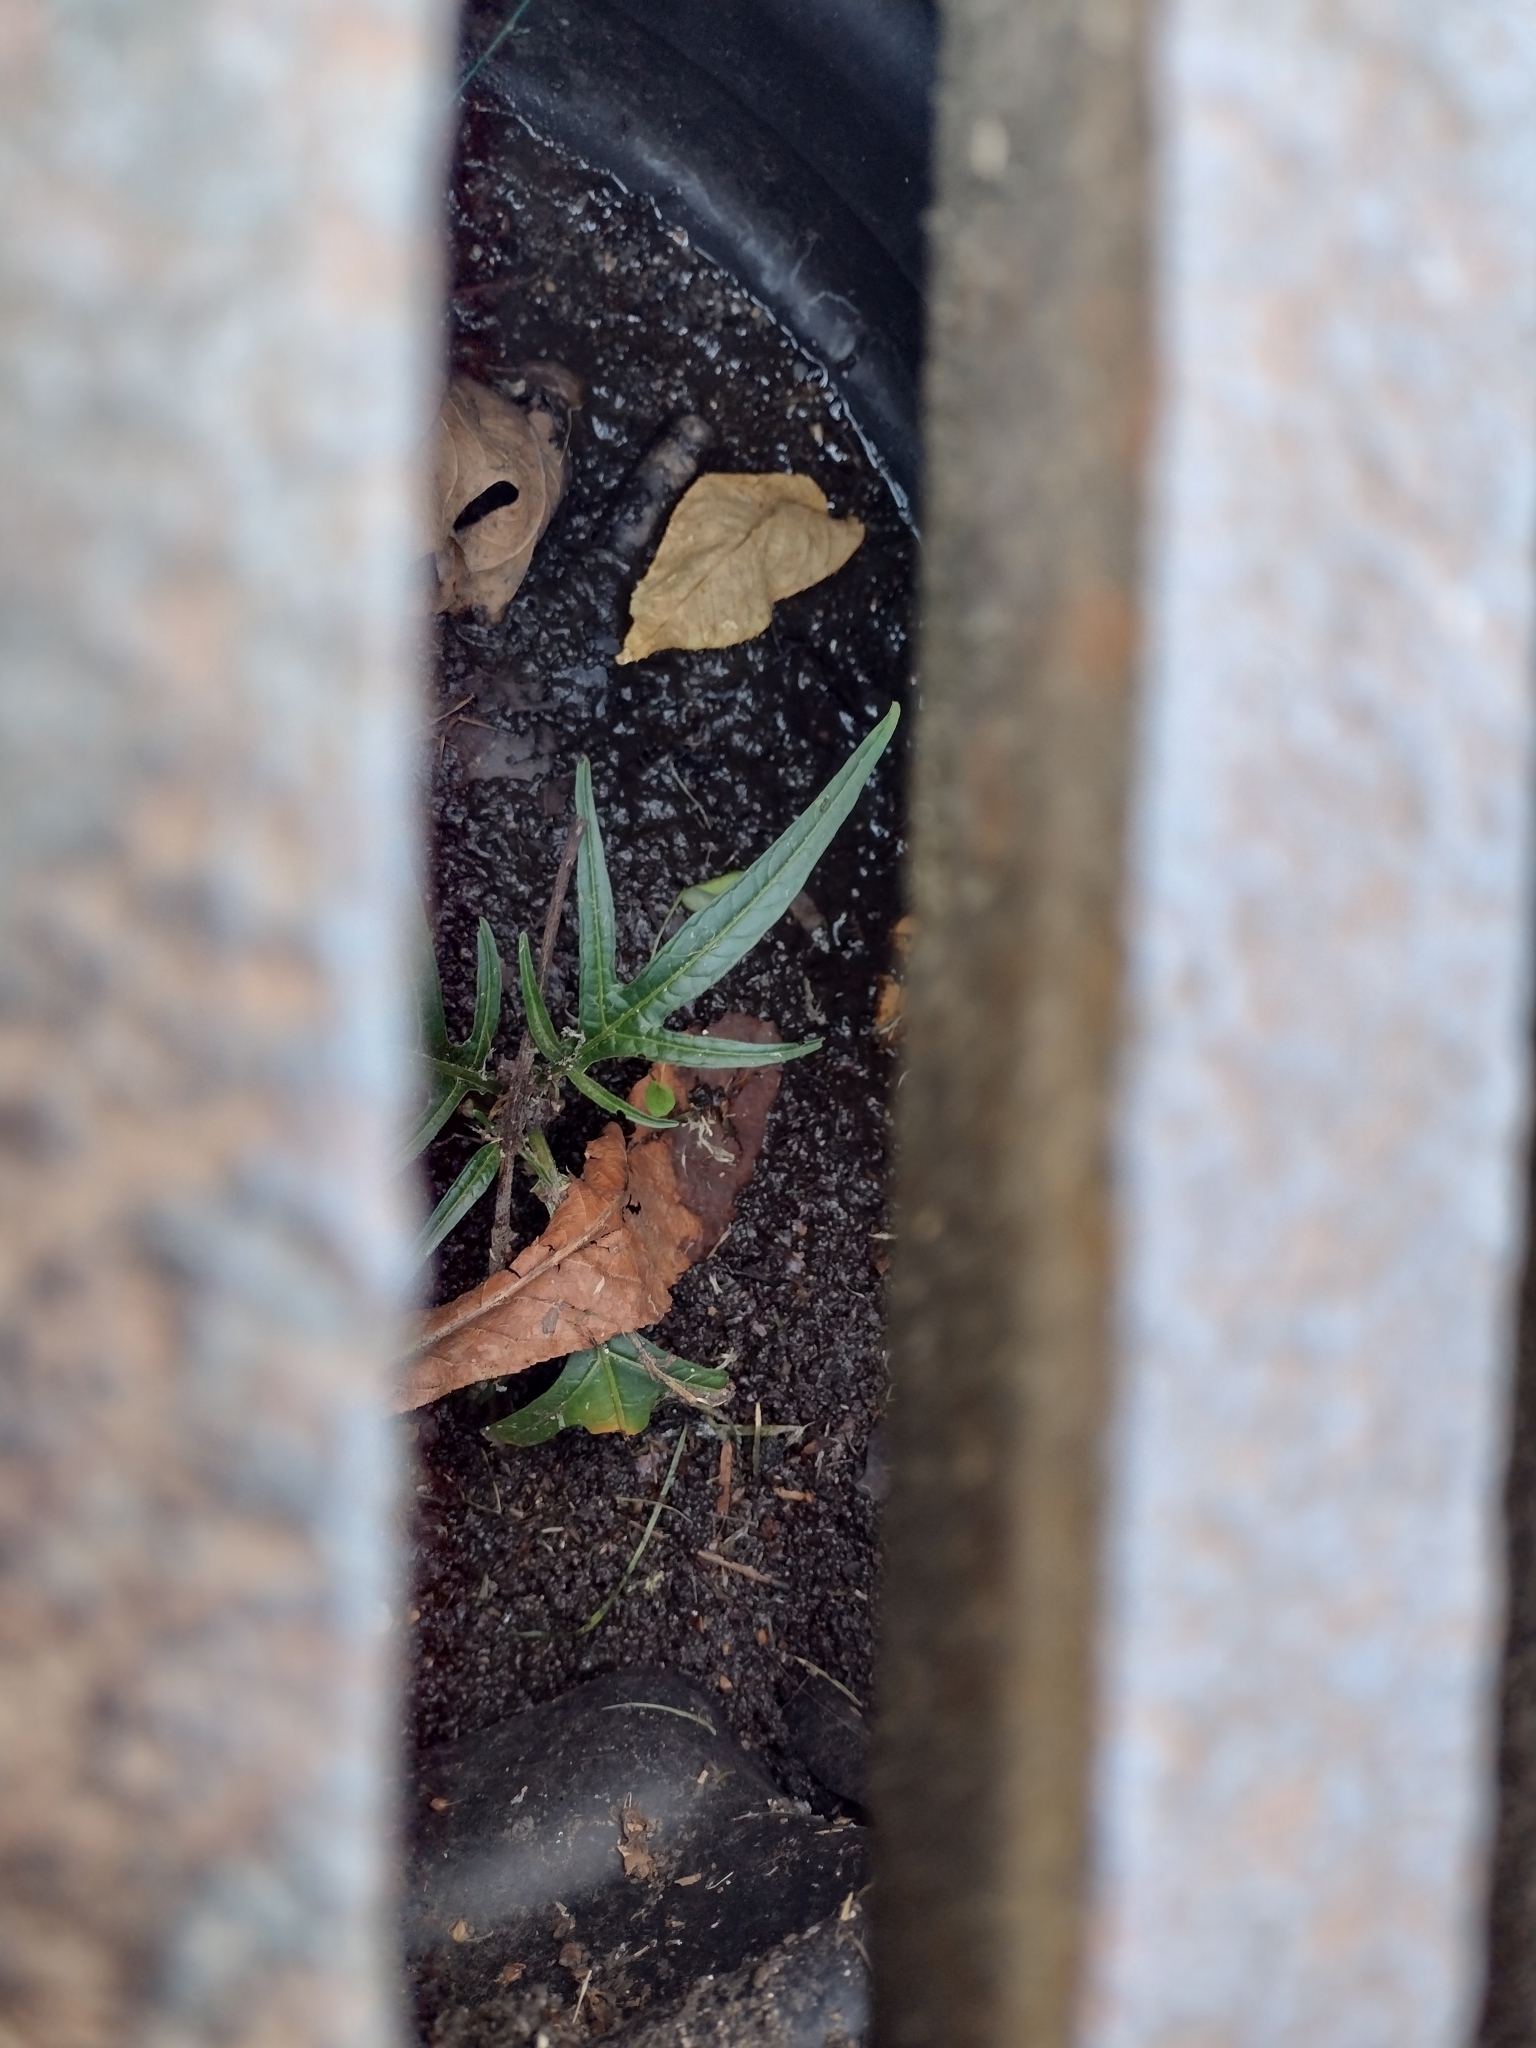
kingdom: Plantae
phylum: Tracheophyta
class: Magnoliopsida
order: Solanales
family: Solanaceae
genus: Solanum
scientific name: Solanum laciniatum
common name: Kangaroo-apple
